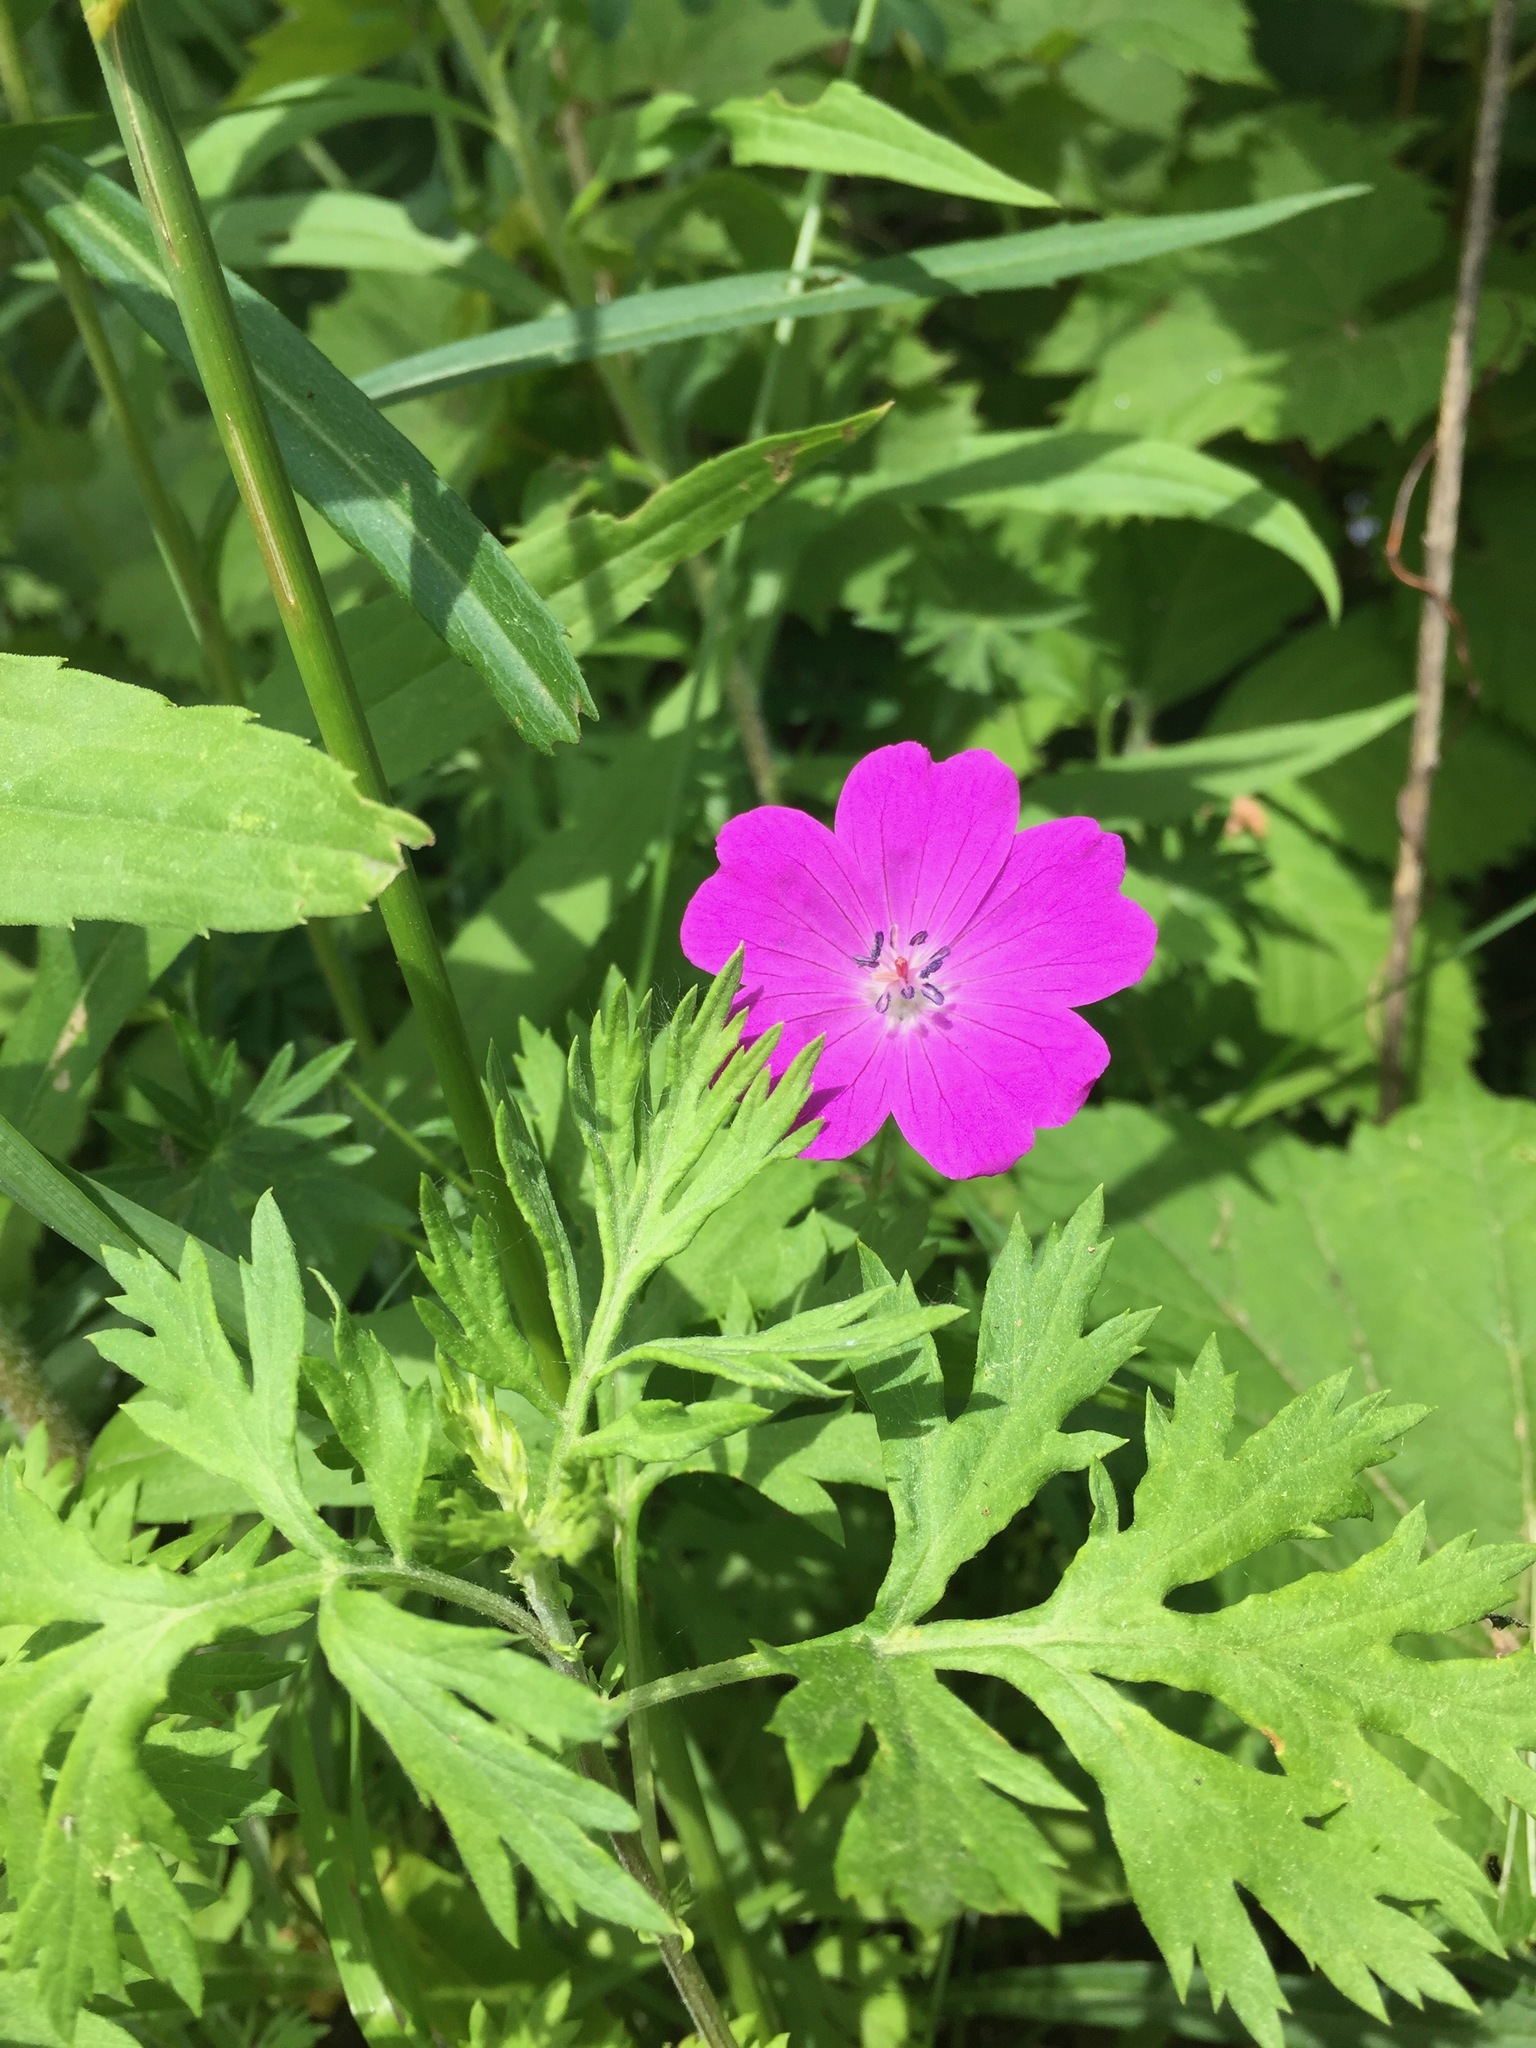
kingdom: Plantae
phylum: Tracheophyta
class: Magnoliopsida
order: Geraniales
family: Geraniaceae
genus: Geranium
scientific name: Geranium sanguineum
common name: Bloody crane's-bill
